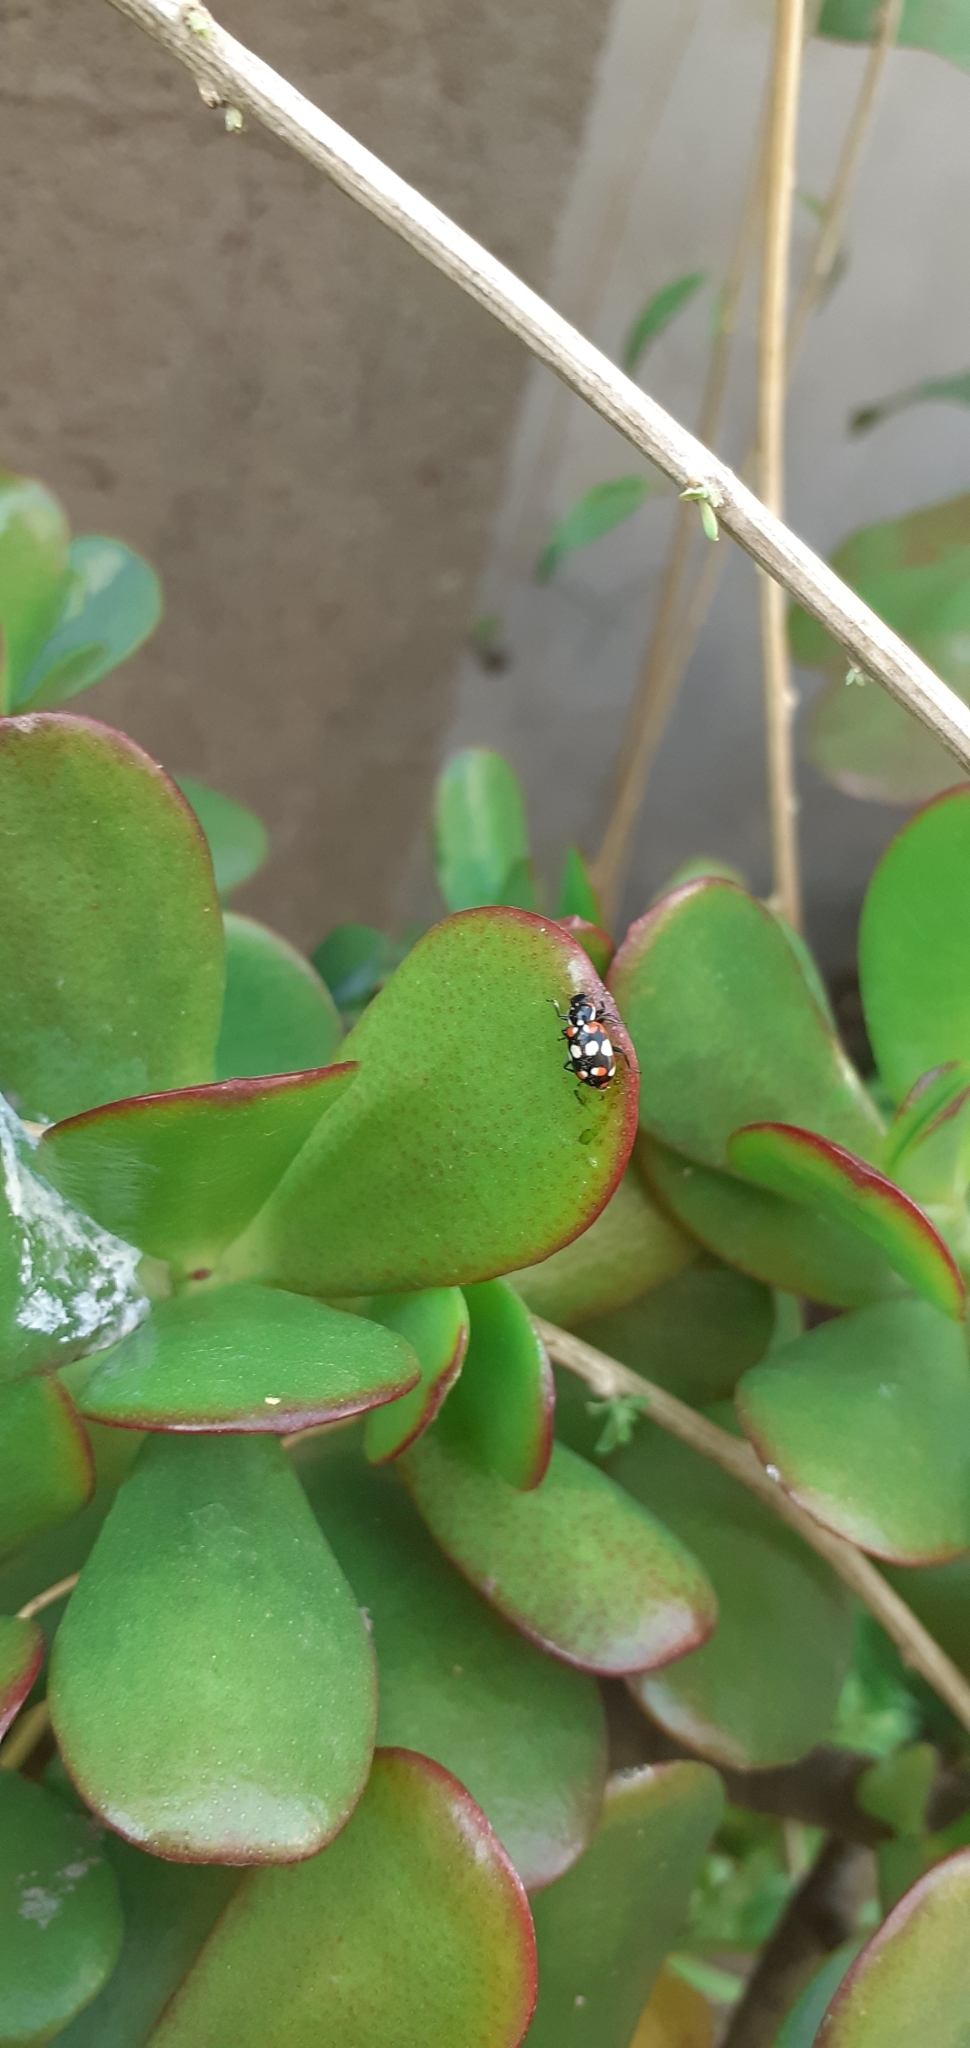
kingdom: Animalia
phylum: Arthropoda
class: Insecta
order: Coleoptera
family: Coccinellidae
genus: Eriopis
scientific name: Eriopis connexa
